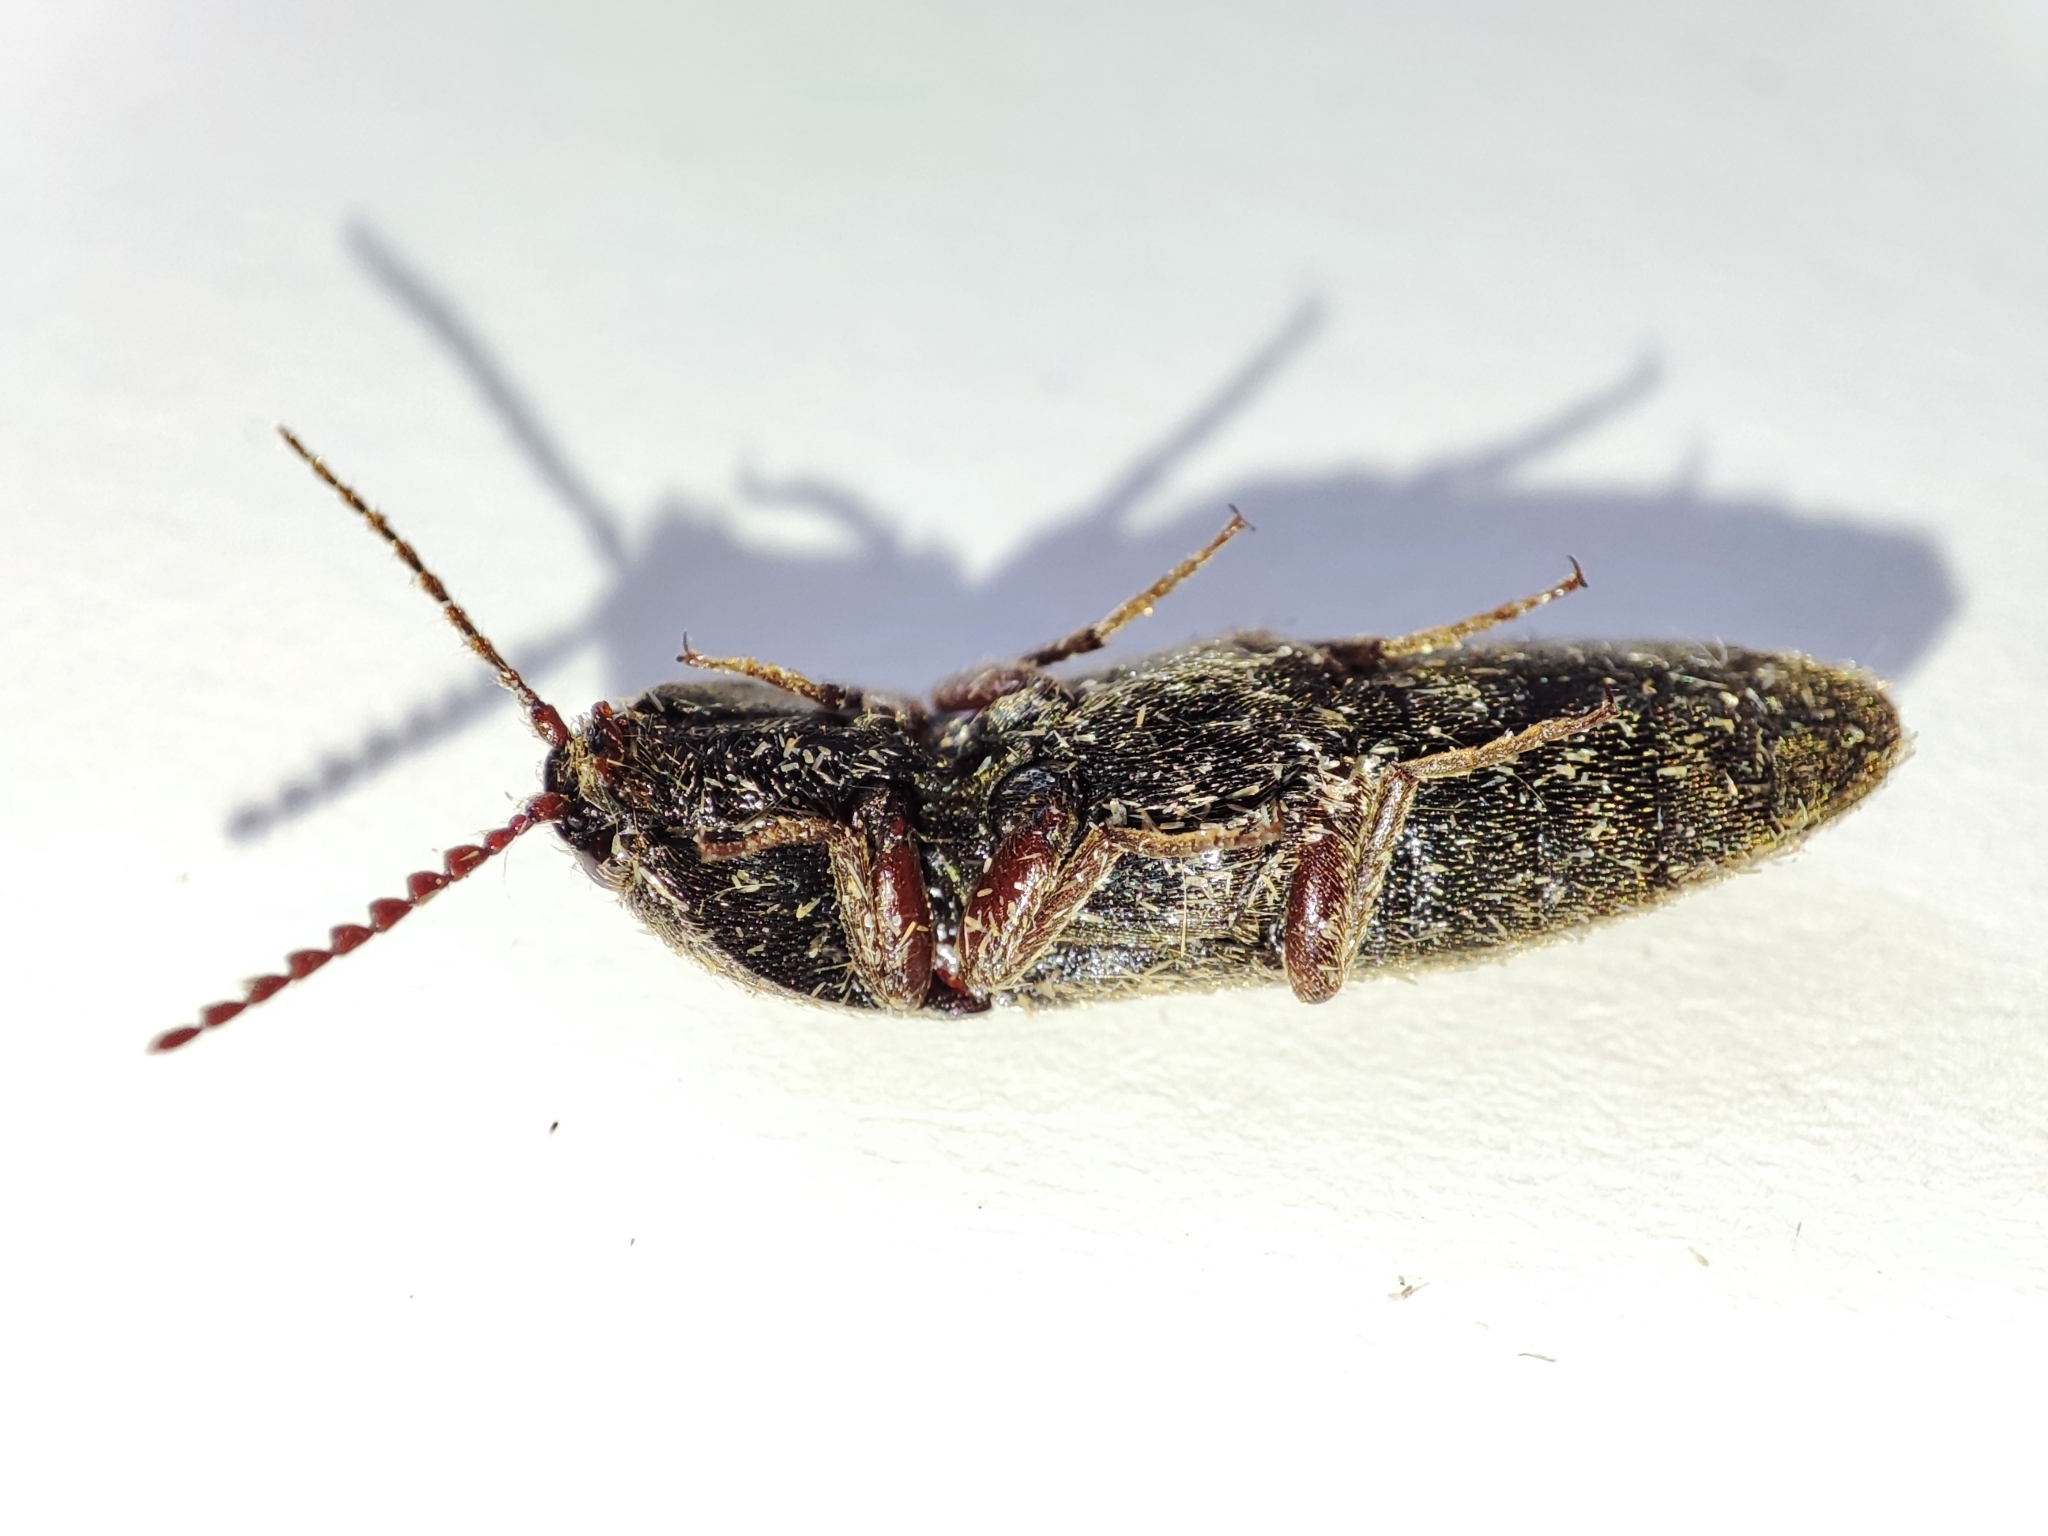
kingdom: Animalia
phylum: Arthropoda
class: Insecta
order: Coleoptera
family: Elateridae
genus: Melanotus
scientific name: Melanotus crassicollis
